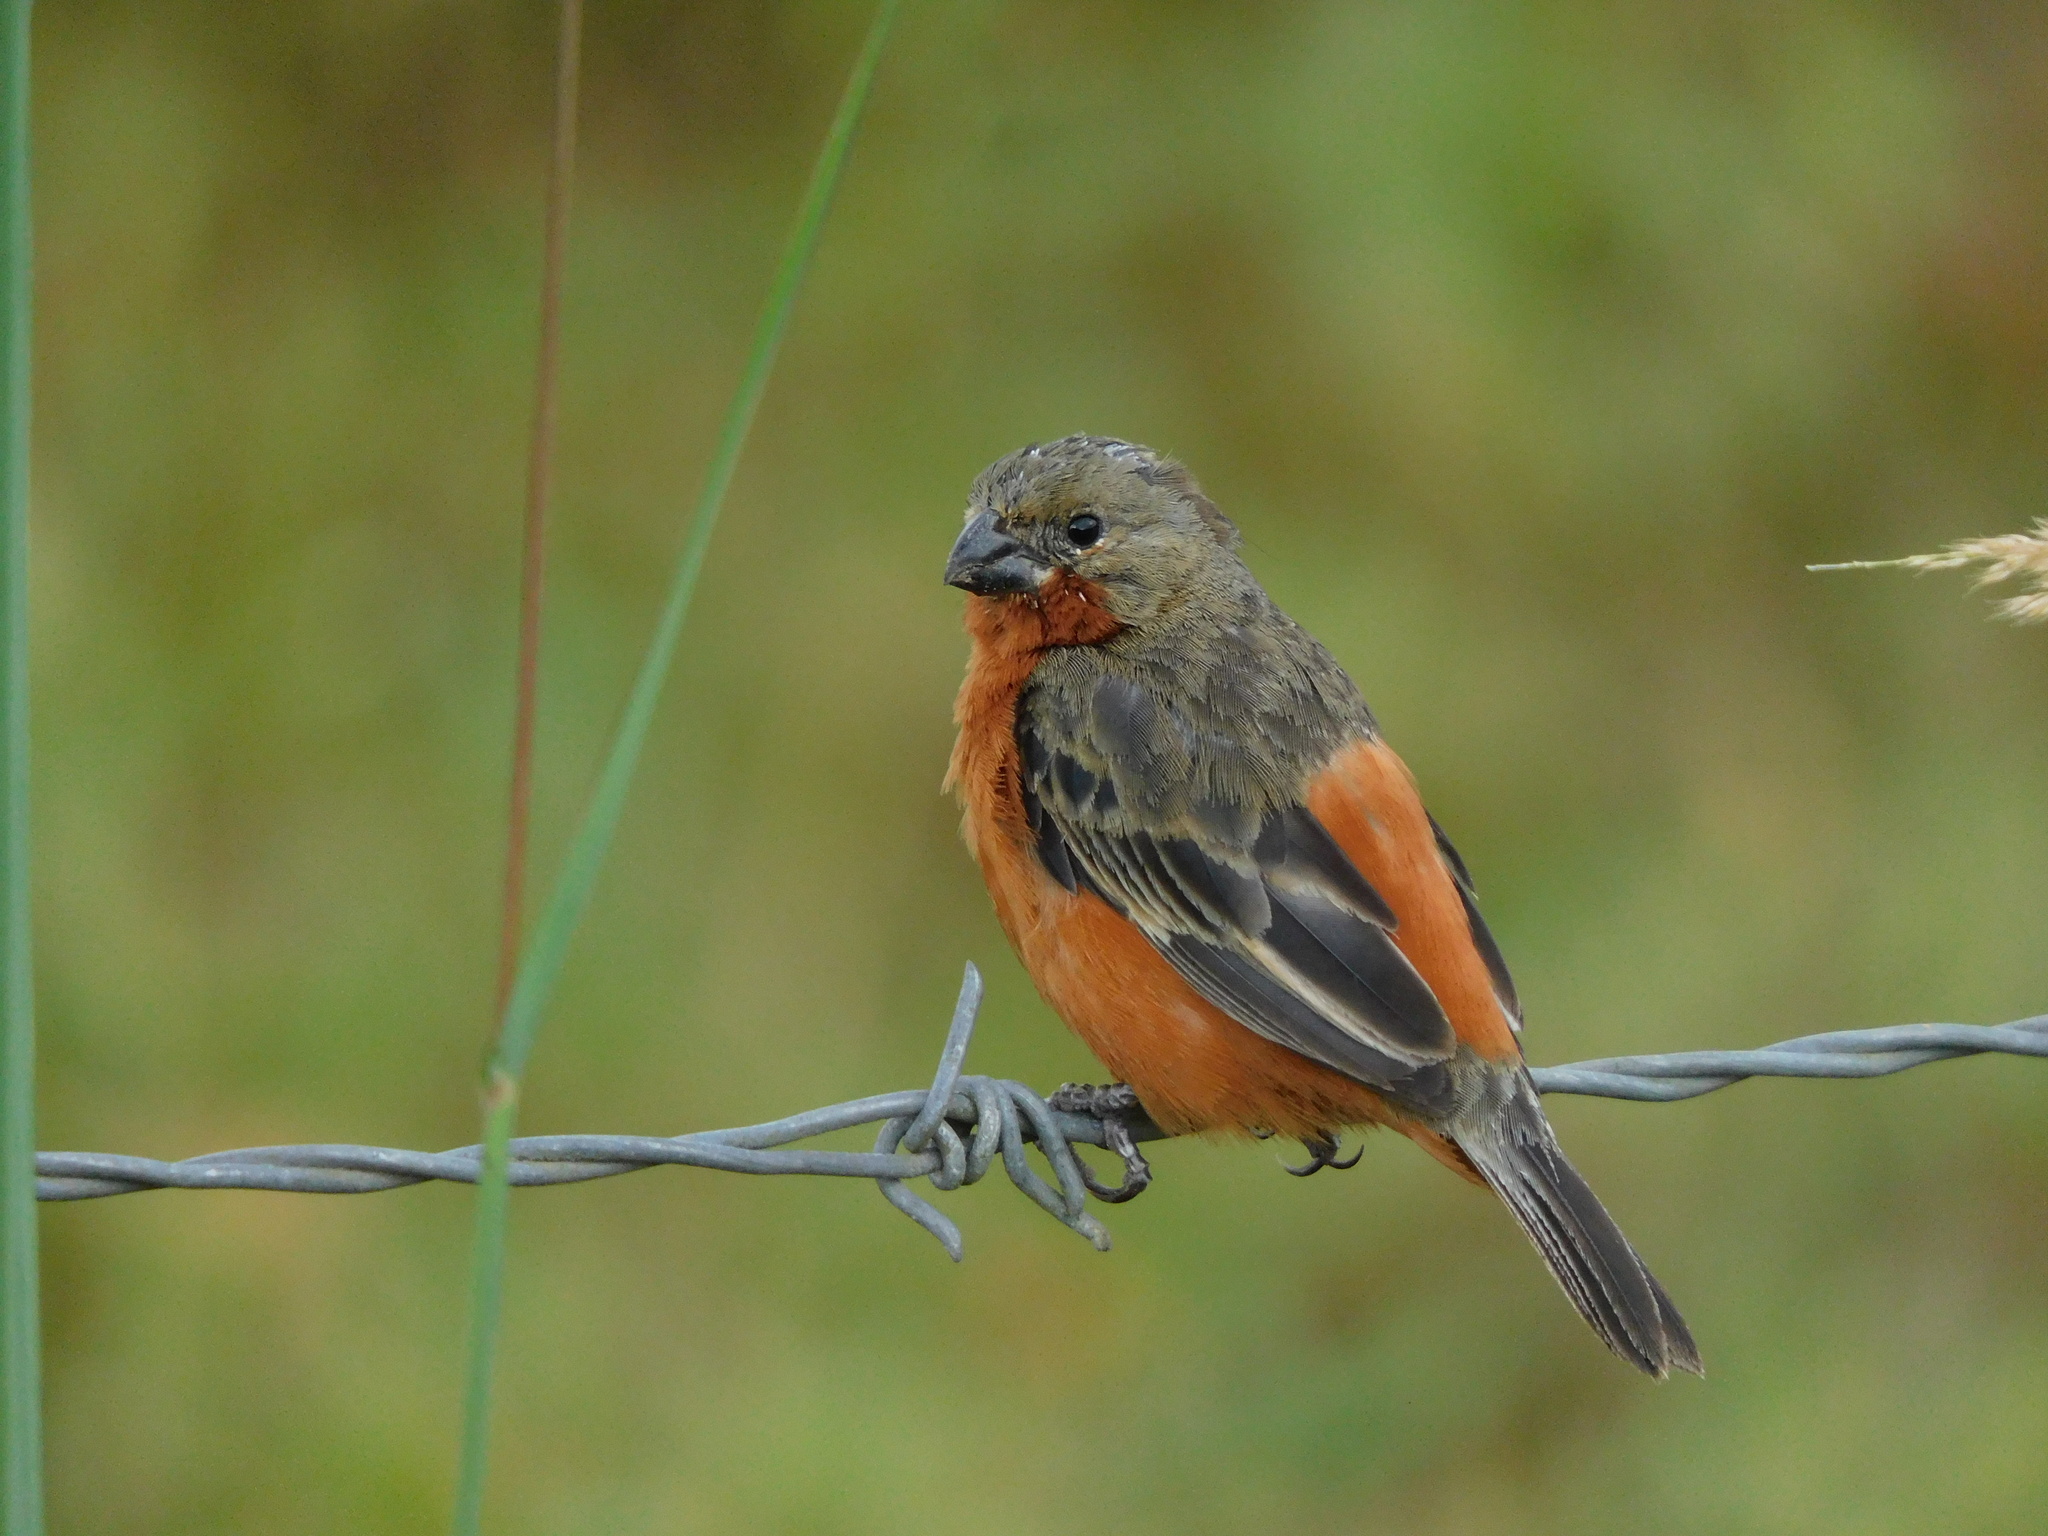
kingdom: Animalia
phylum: Chordata
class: Aves
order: Passeriformes
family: Thraupidae
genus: Sporophila
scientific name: Sporophila minuta
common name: Ruddy-breasted seedeater
